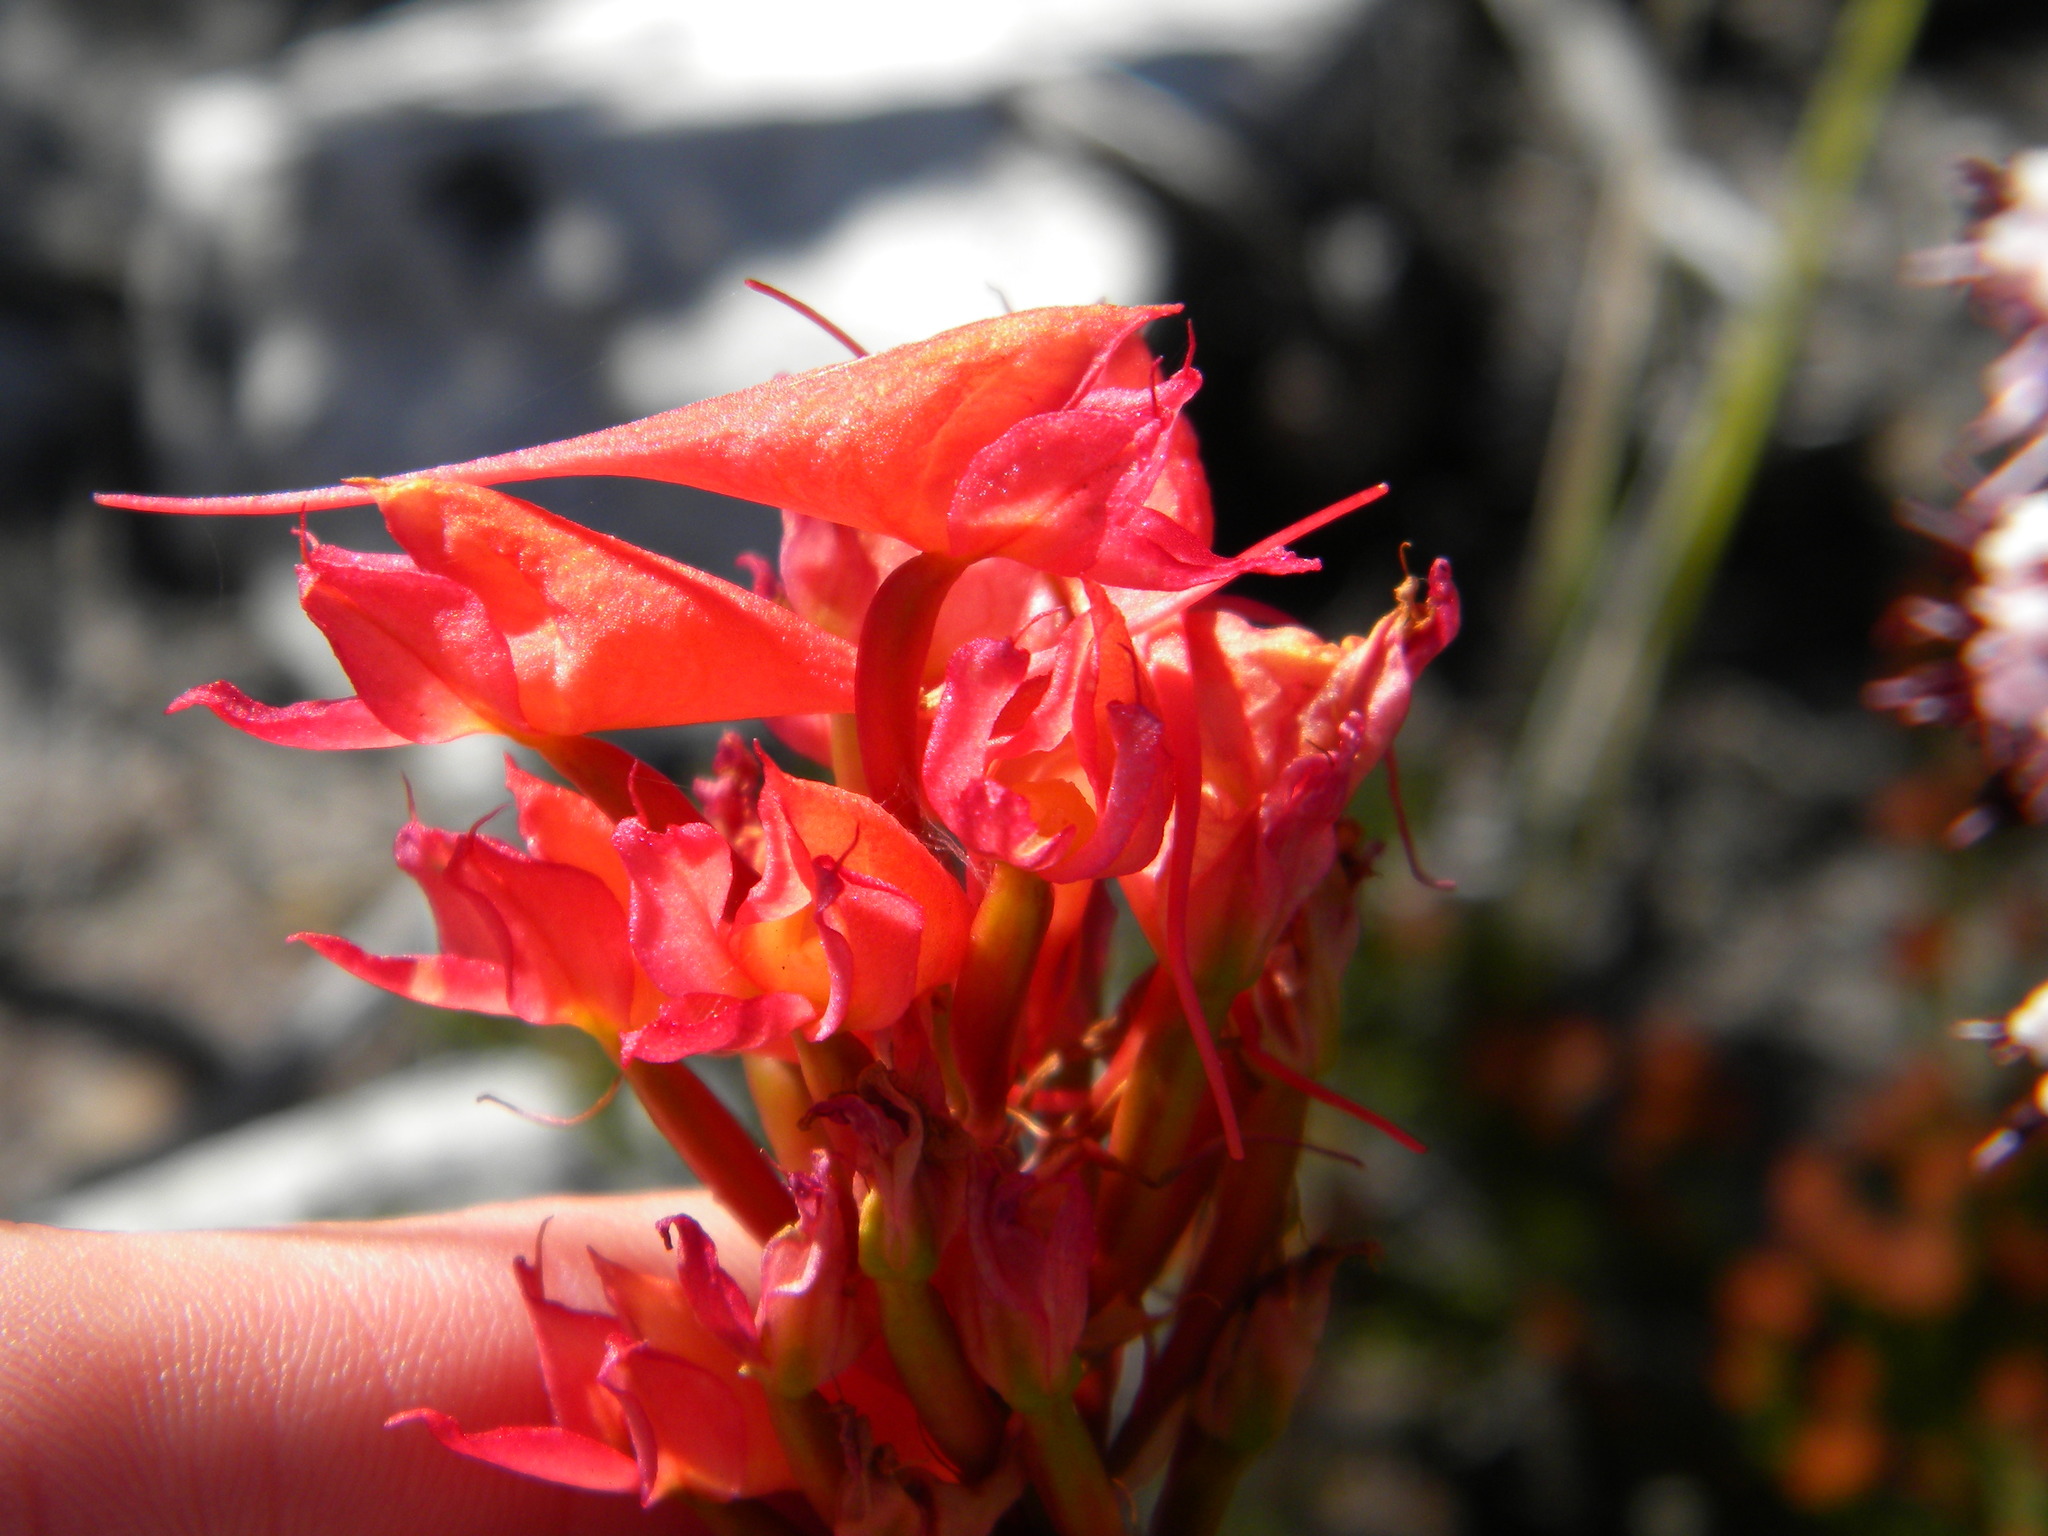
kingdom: Plantae
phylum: Tracheophyta
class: Liliopsida
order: Asparagales
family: Orchidaceae
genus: Disa
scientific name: Disa ferruginea
